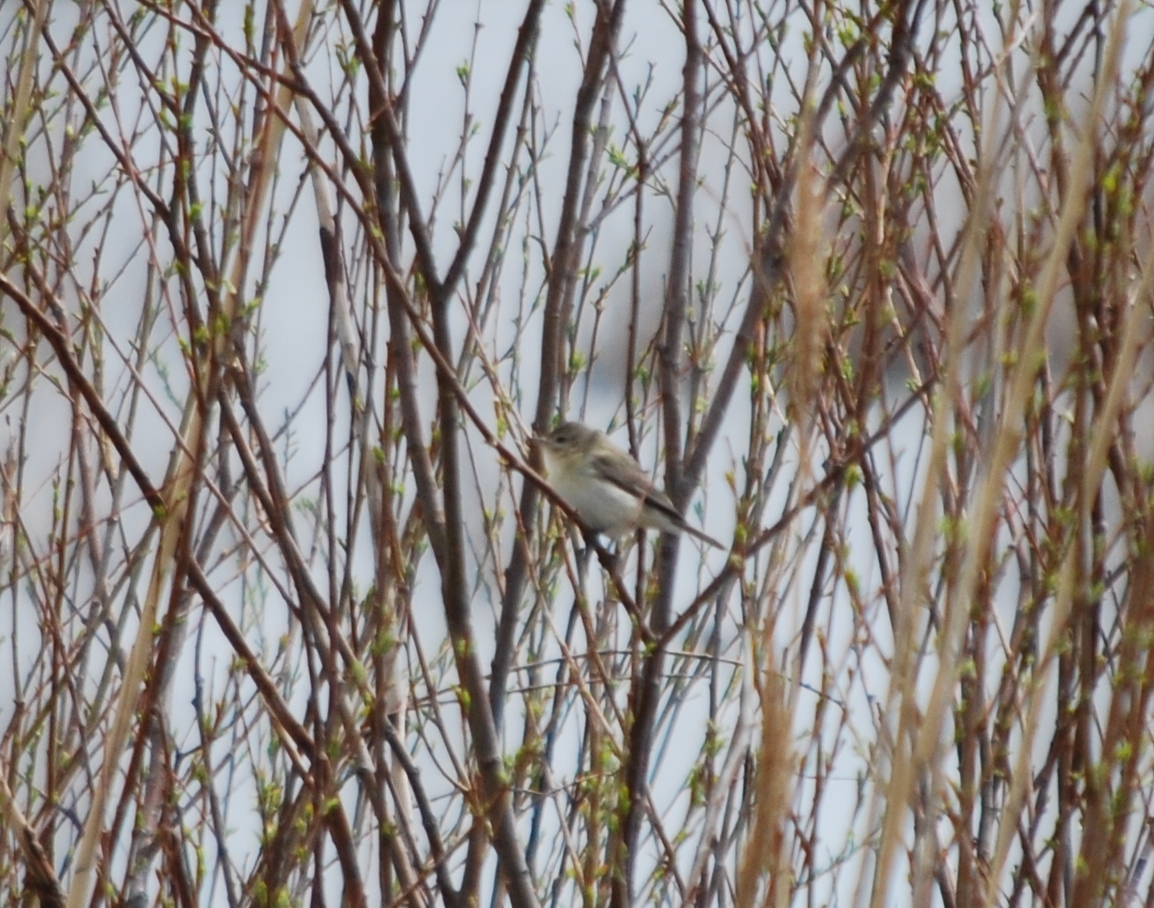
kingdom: Animalia
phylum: Chordata
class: Aves
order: Passeriformes
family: Vireonidae
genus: Vireo
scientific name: Vireo gilvus
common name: Warbling vireo
